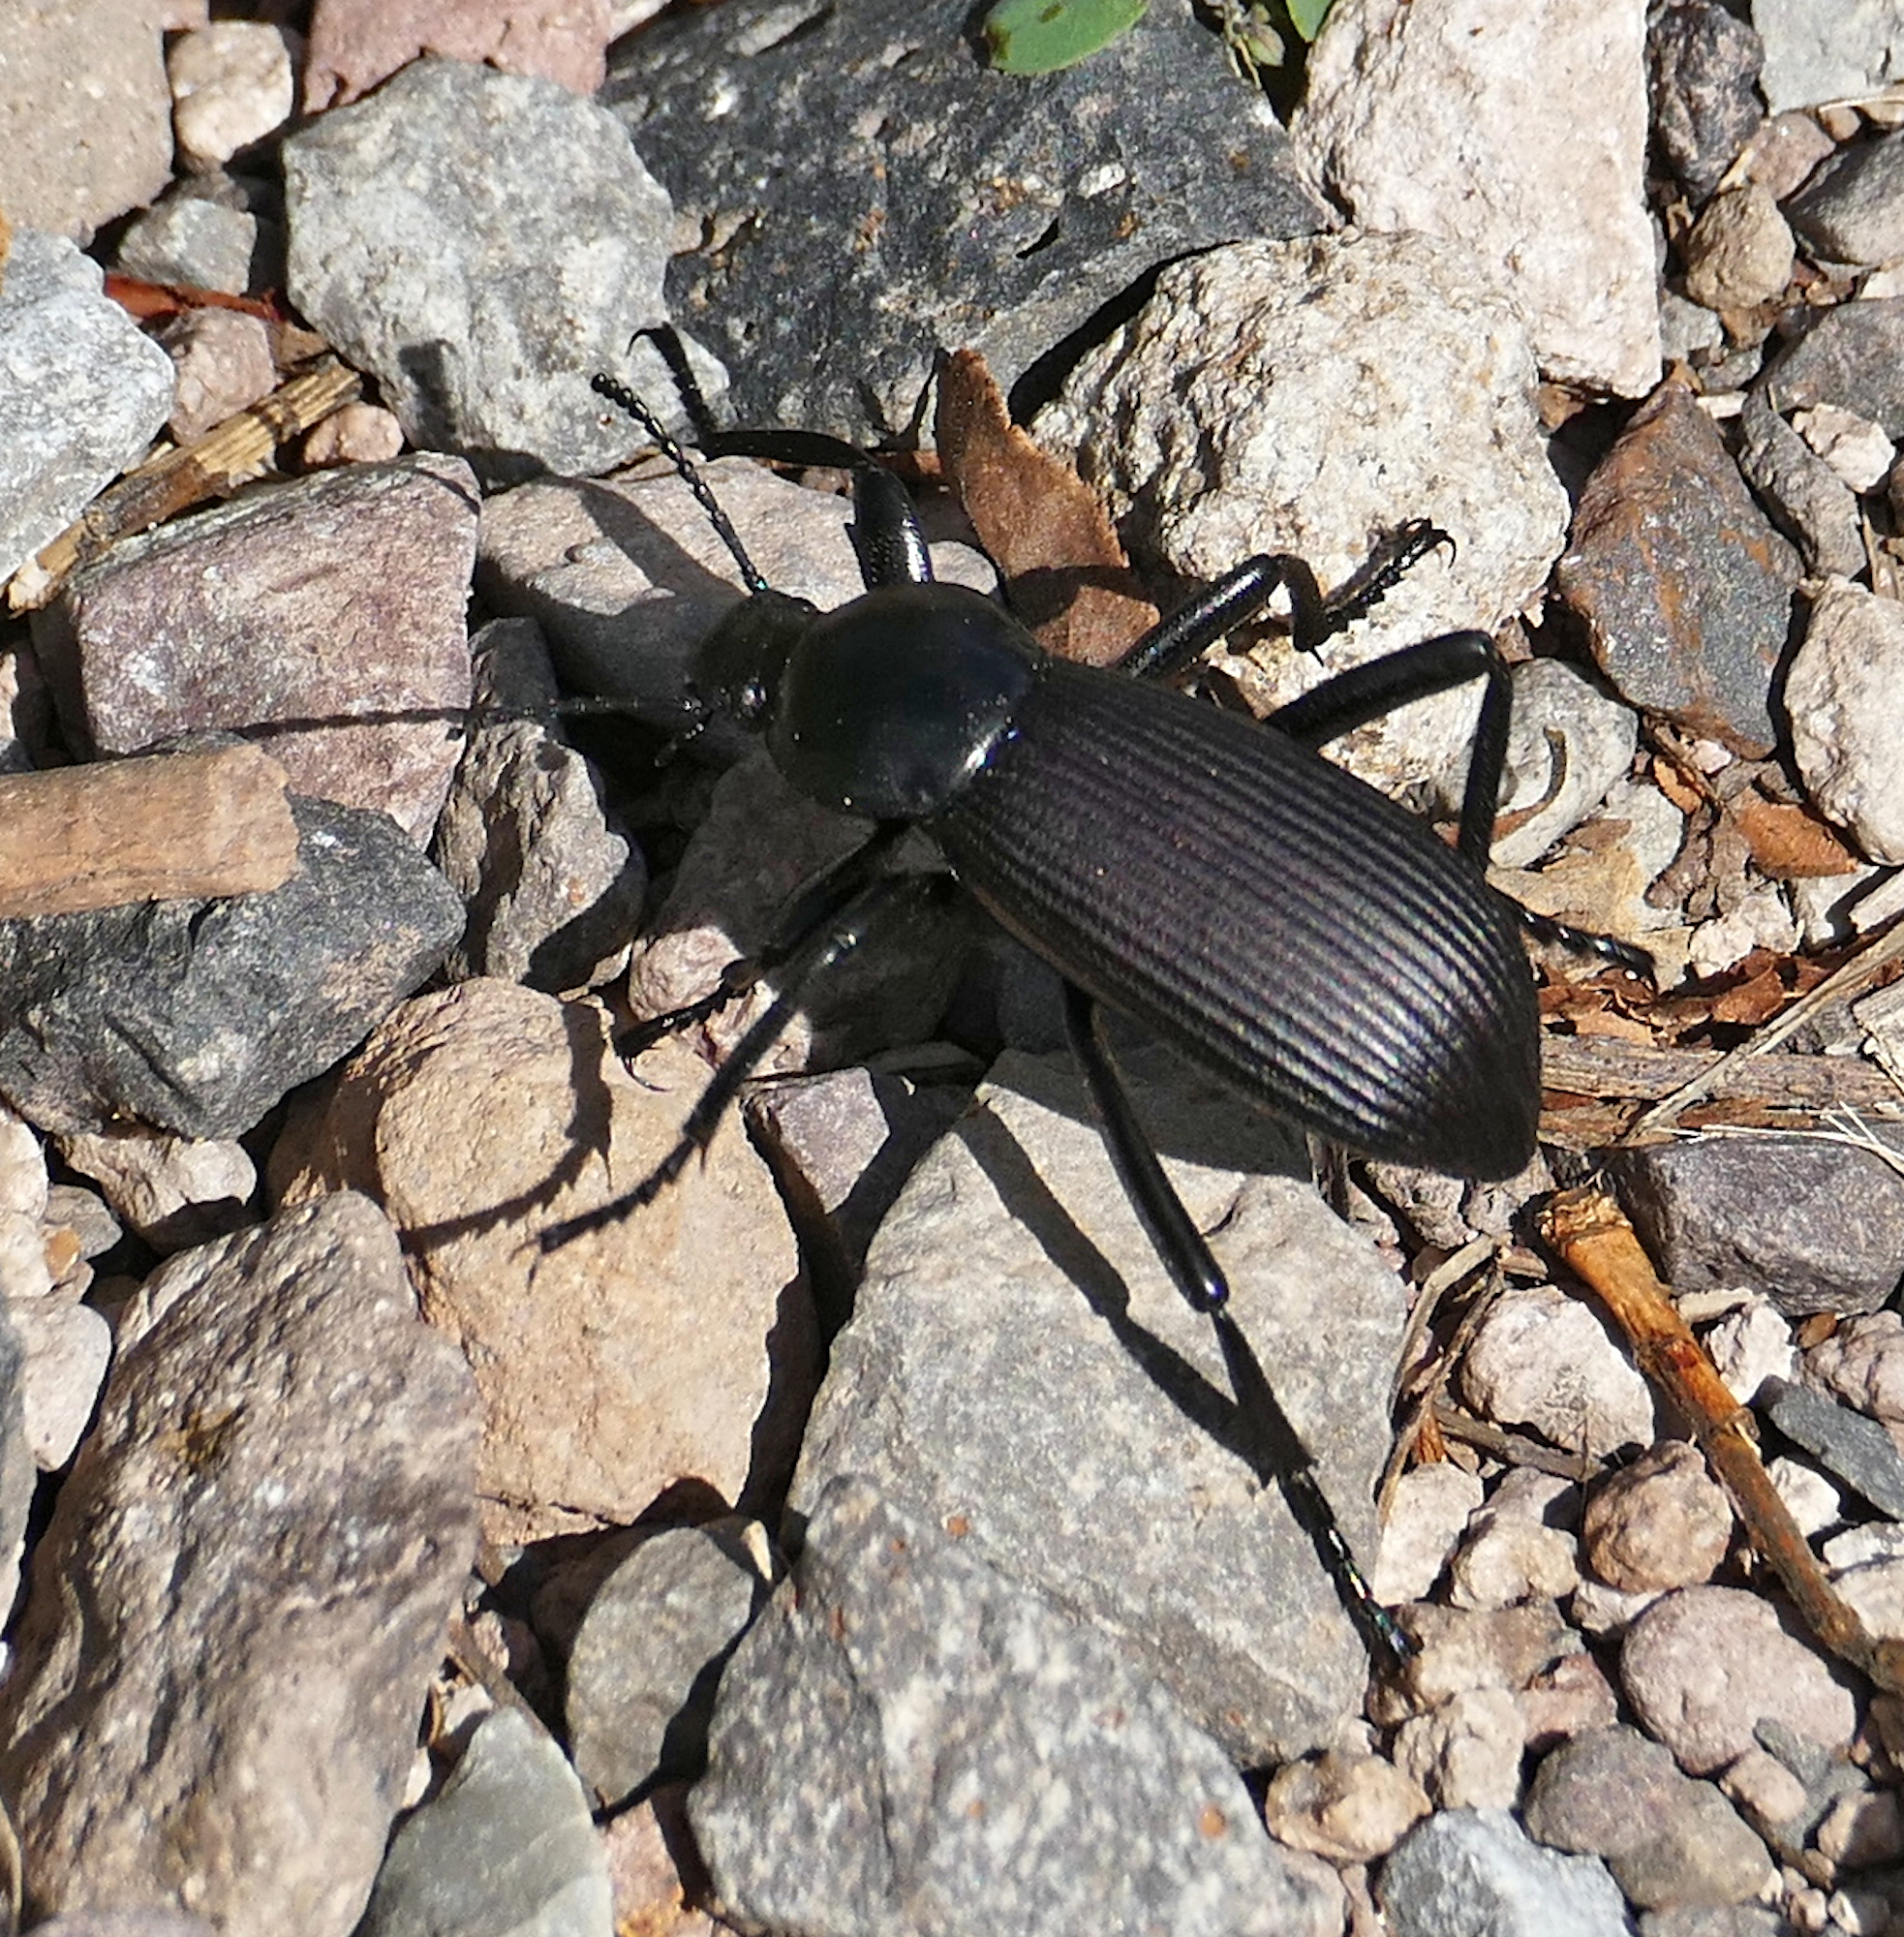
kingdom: Animalia
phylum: Arthropoda
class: Insecta
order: Coleoptera
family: Tenebrionidae
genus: Eleodes
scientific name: Eleodes obscura
